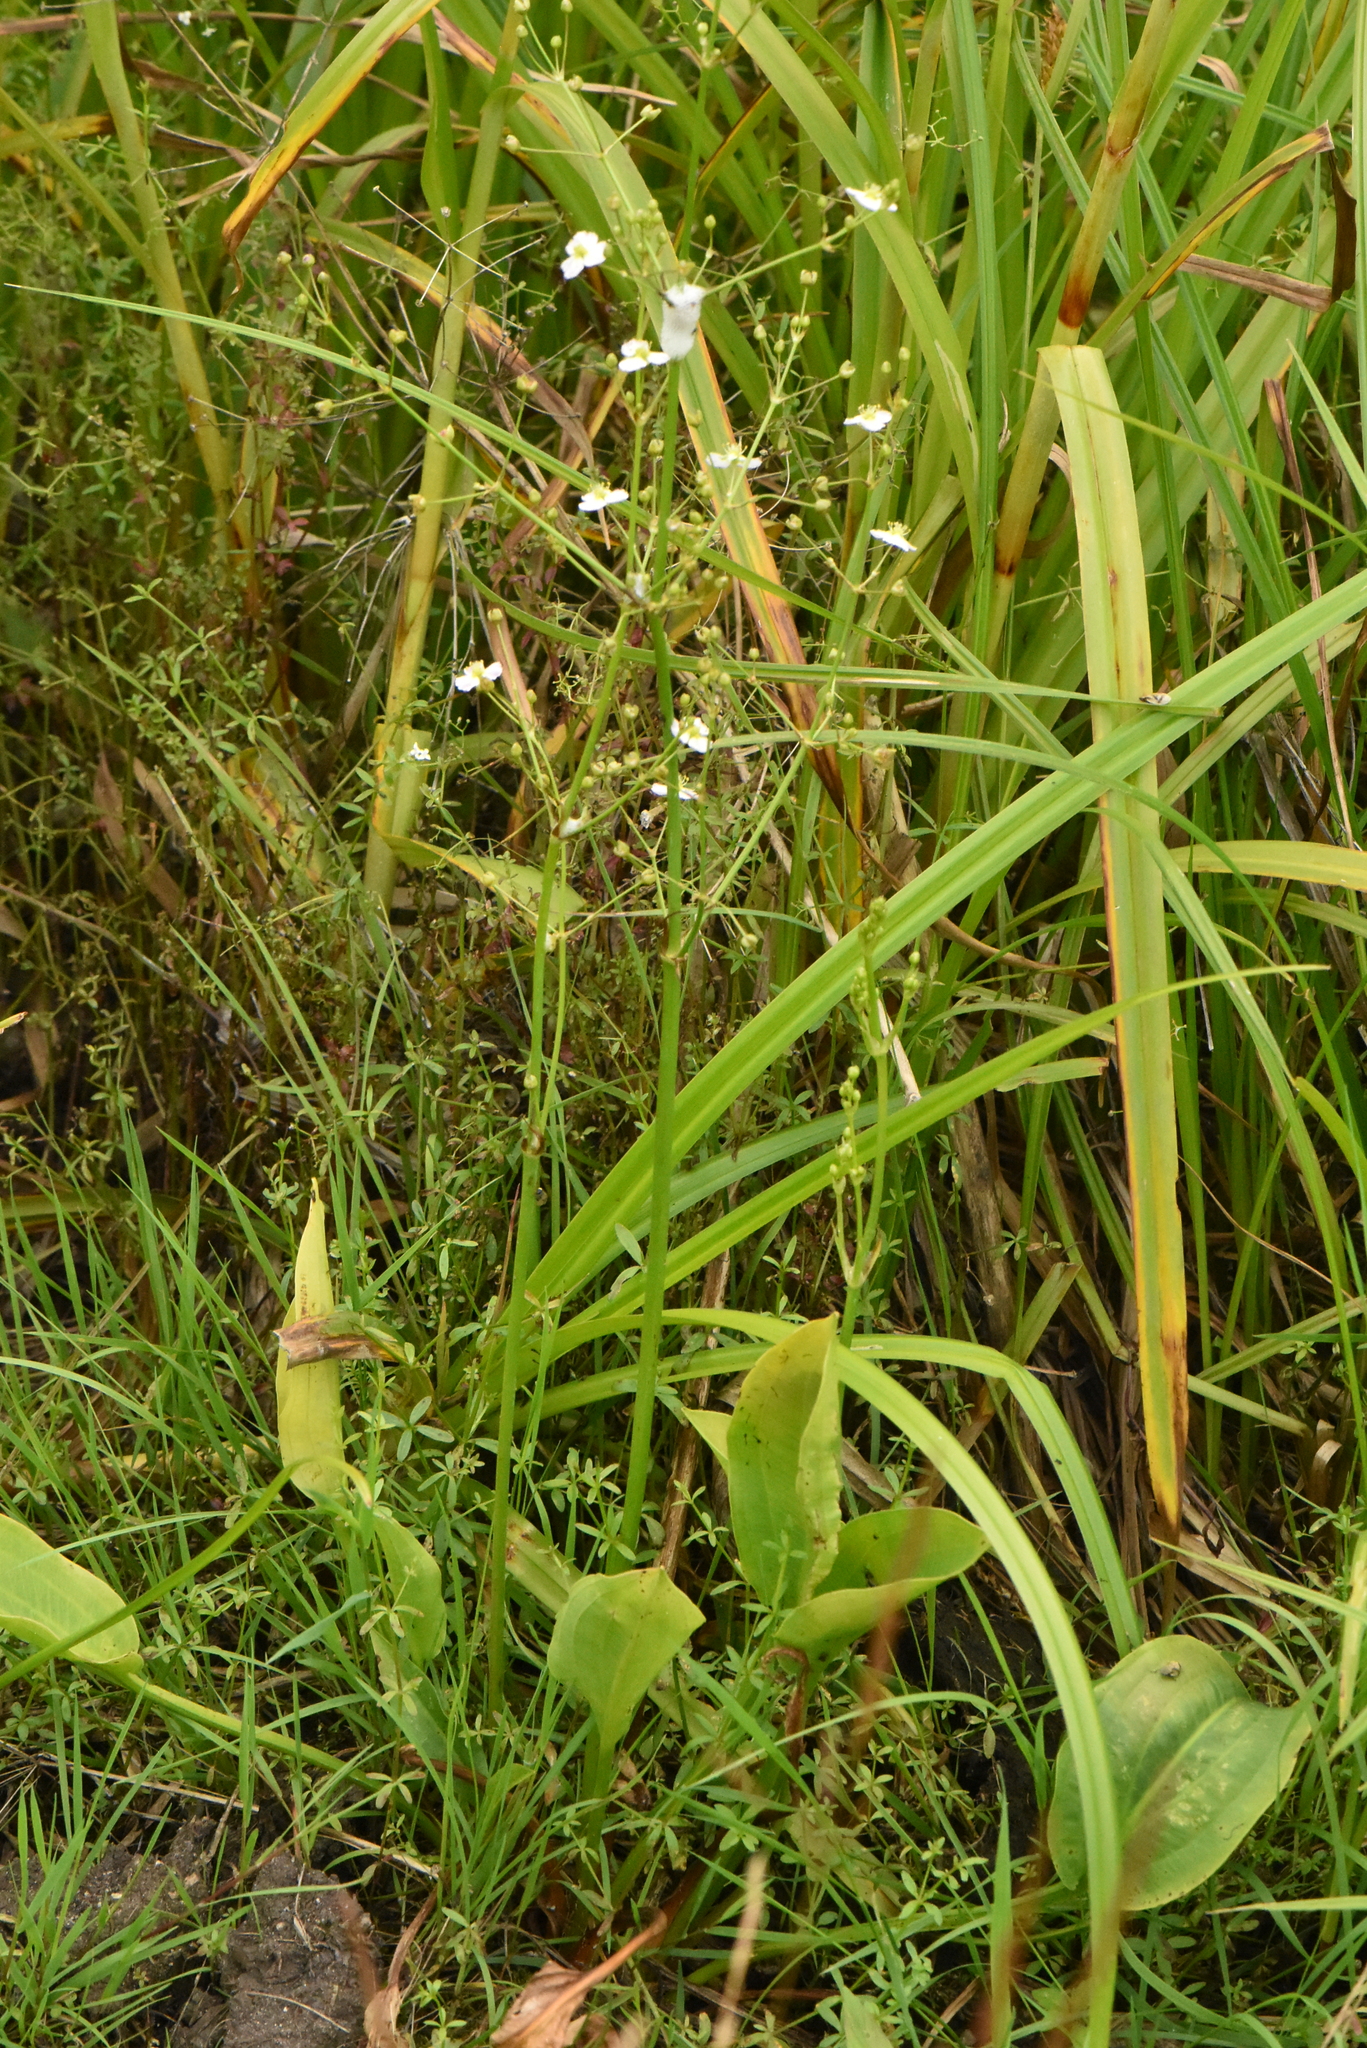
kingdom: Plantae
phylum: Tracheophyta
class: Liliopsida
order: Alismatales
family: Alismataceae
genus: Alisma
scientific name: Alisma plantago-aquatica
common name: Water-plantain
